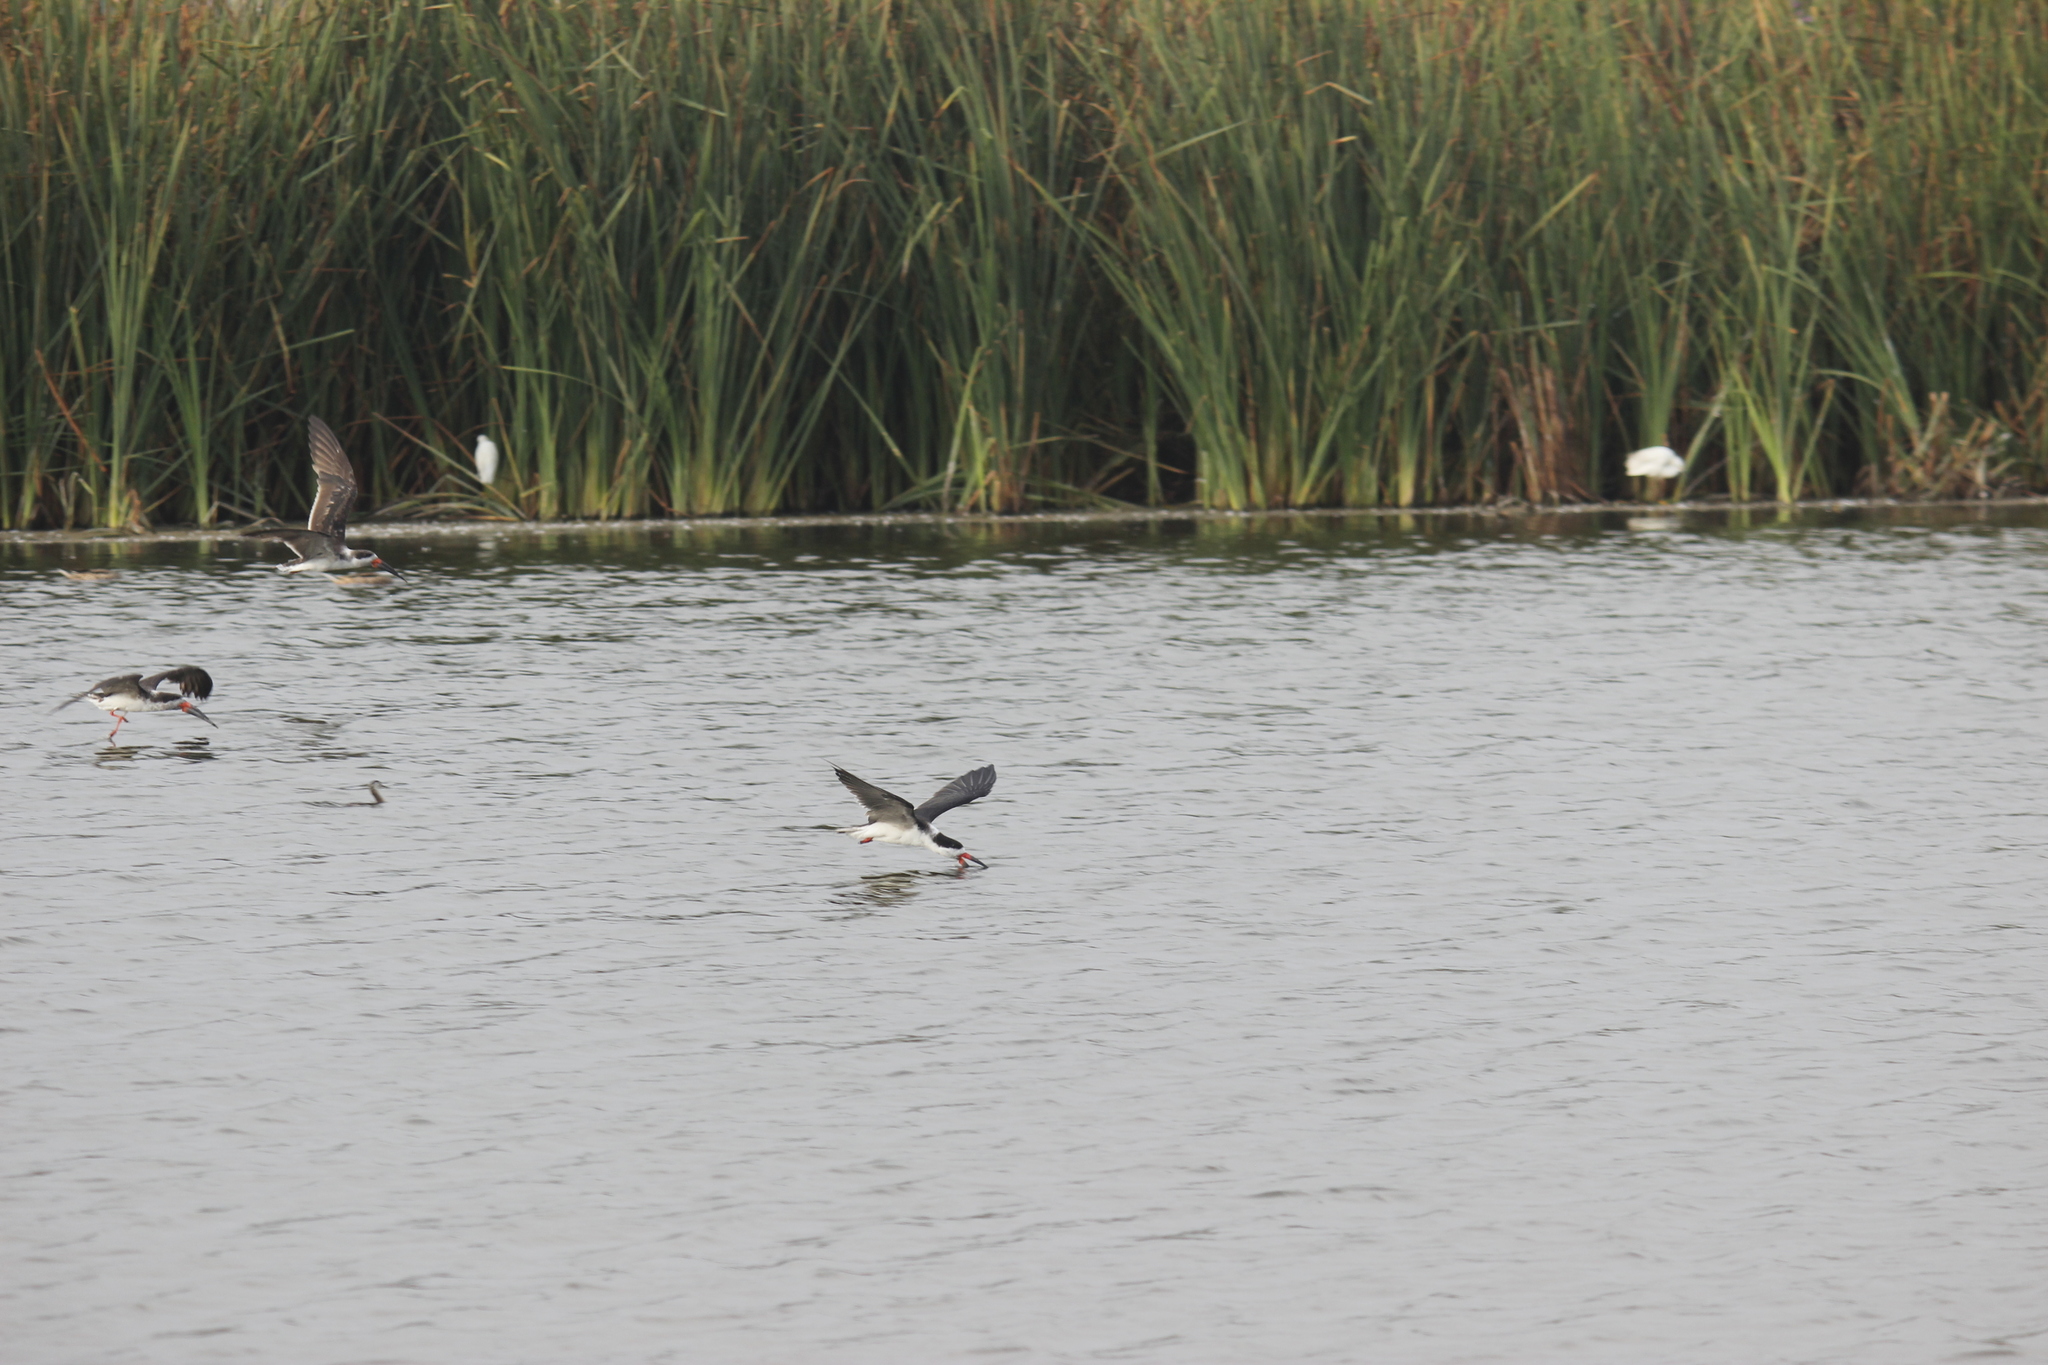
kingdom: Animalia
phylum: Chordata
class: Aves
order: Charadriiformes
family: Laridae
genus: Rynchops
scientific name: Rynchops niger
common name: Black skimmer
